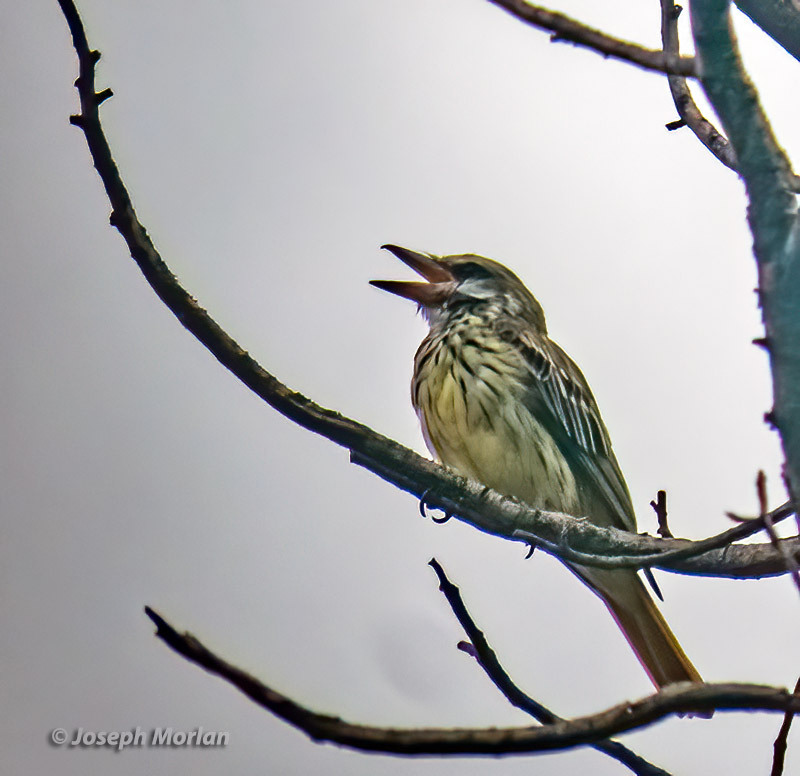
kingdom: Animalia
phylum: Chordata
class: Aves
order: Passeriformes
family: Tyrannidae
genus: Myiodynastes
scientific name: Myiodynastes luteiventris
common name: Sulphur-bellied flycatcher
